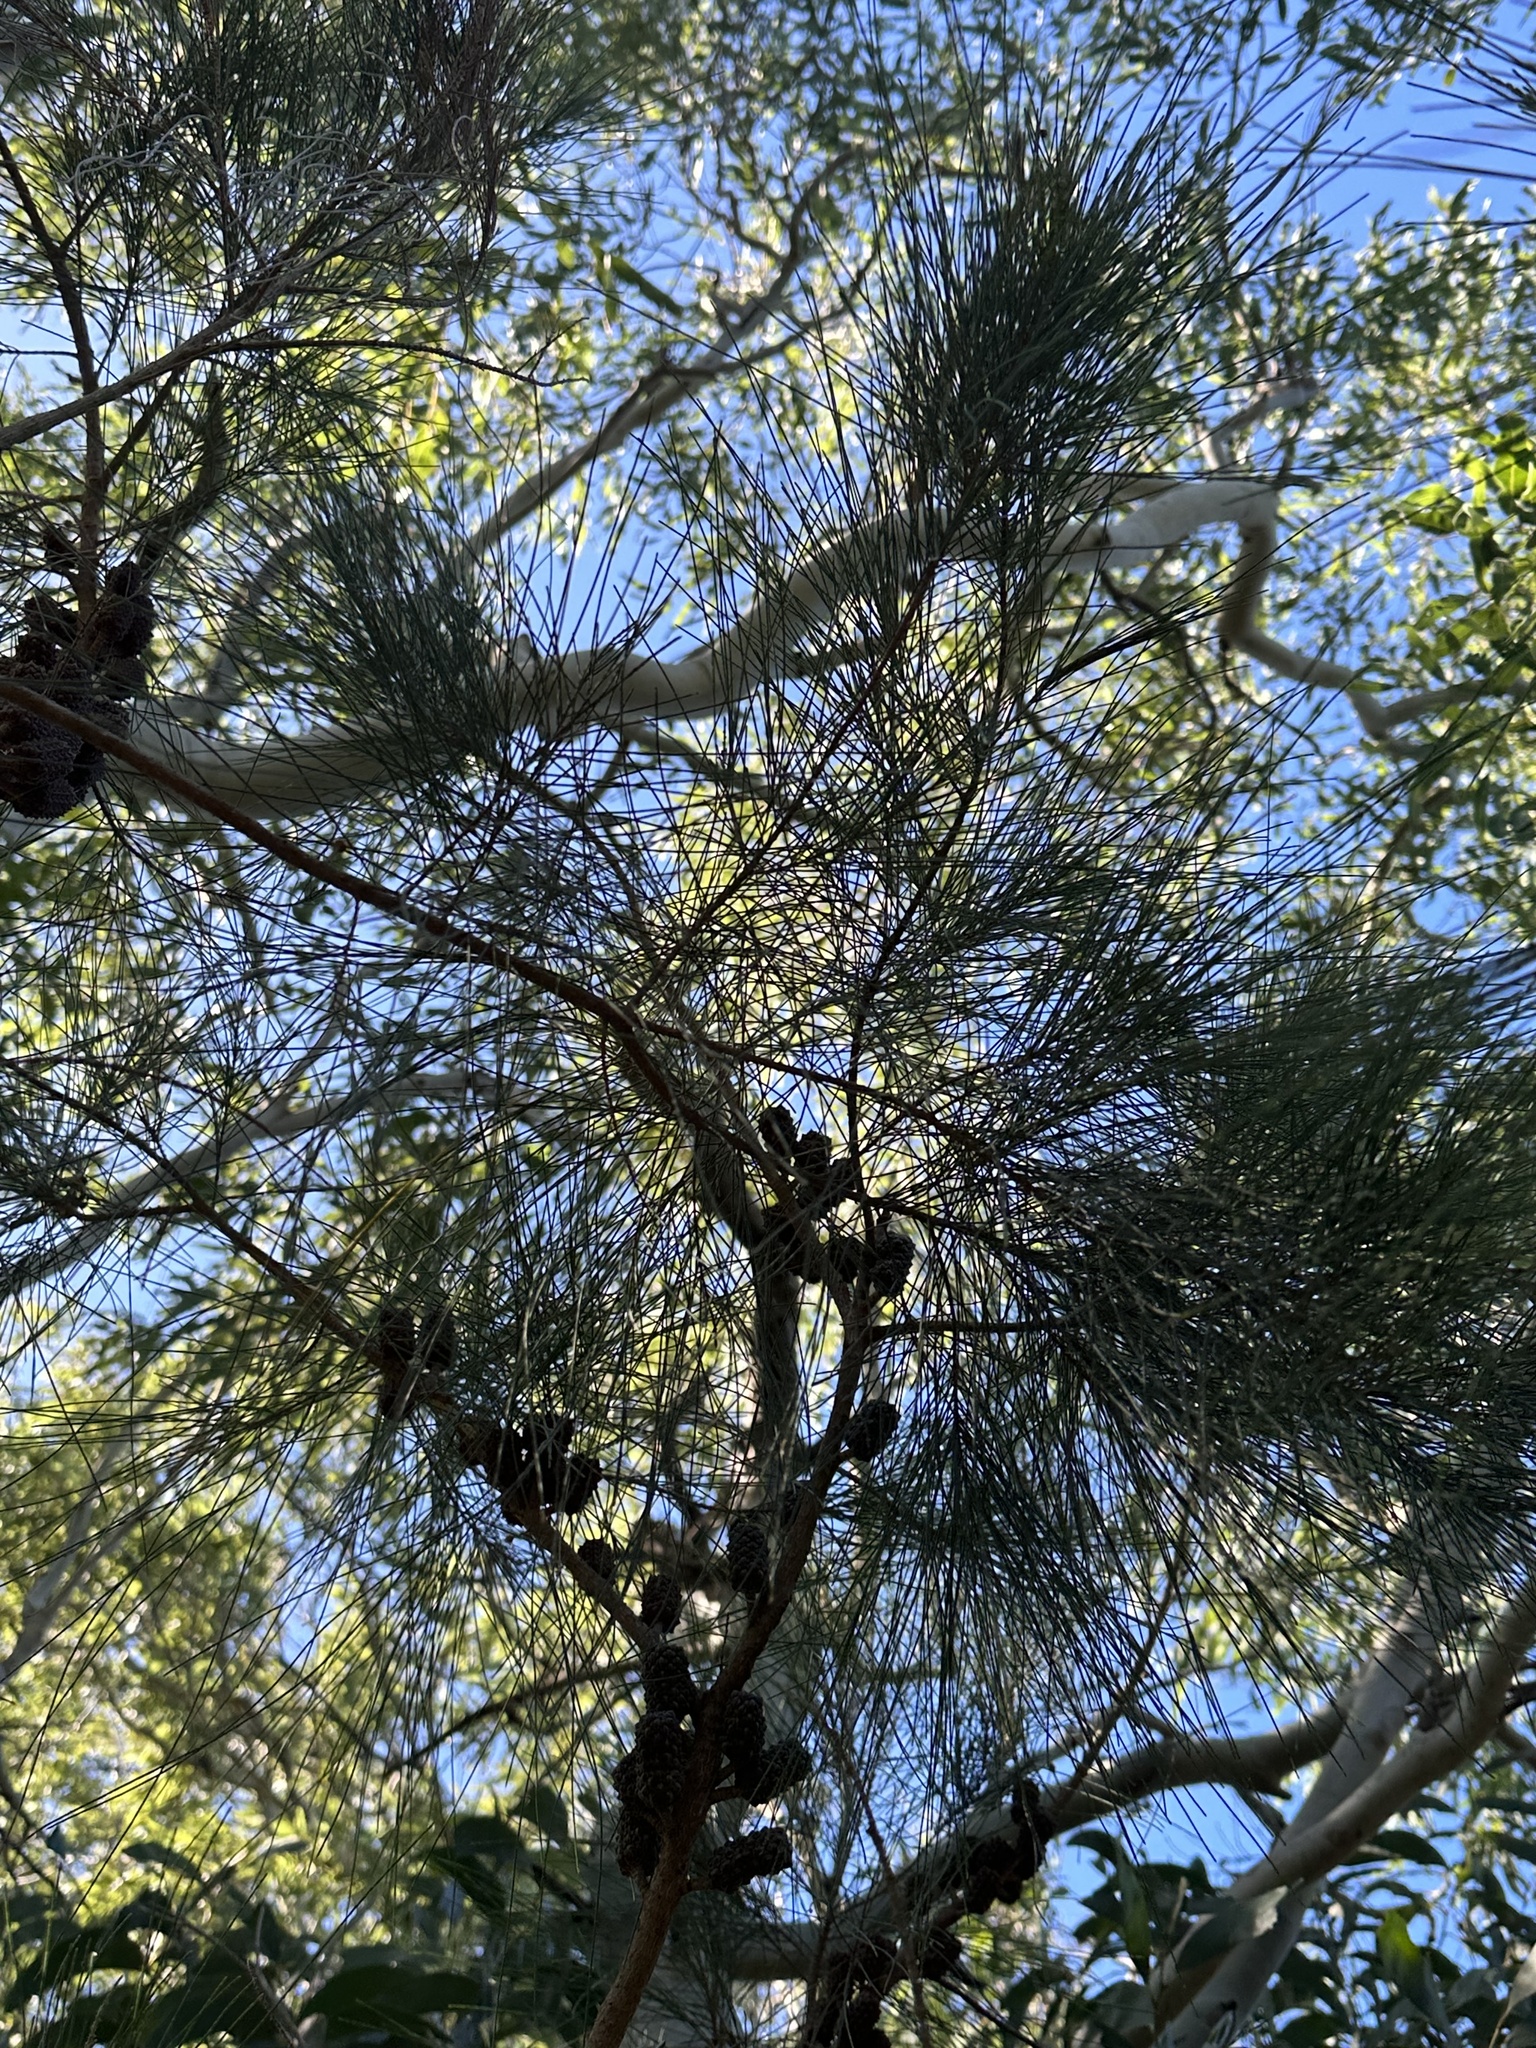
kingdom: Plantae
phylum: Tracheophyta
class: Magnoliopsida
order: Fagales
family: Casuarinaceae
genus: Casuarina
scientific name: Casuarina equisetifolia
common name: Beach sheoak
